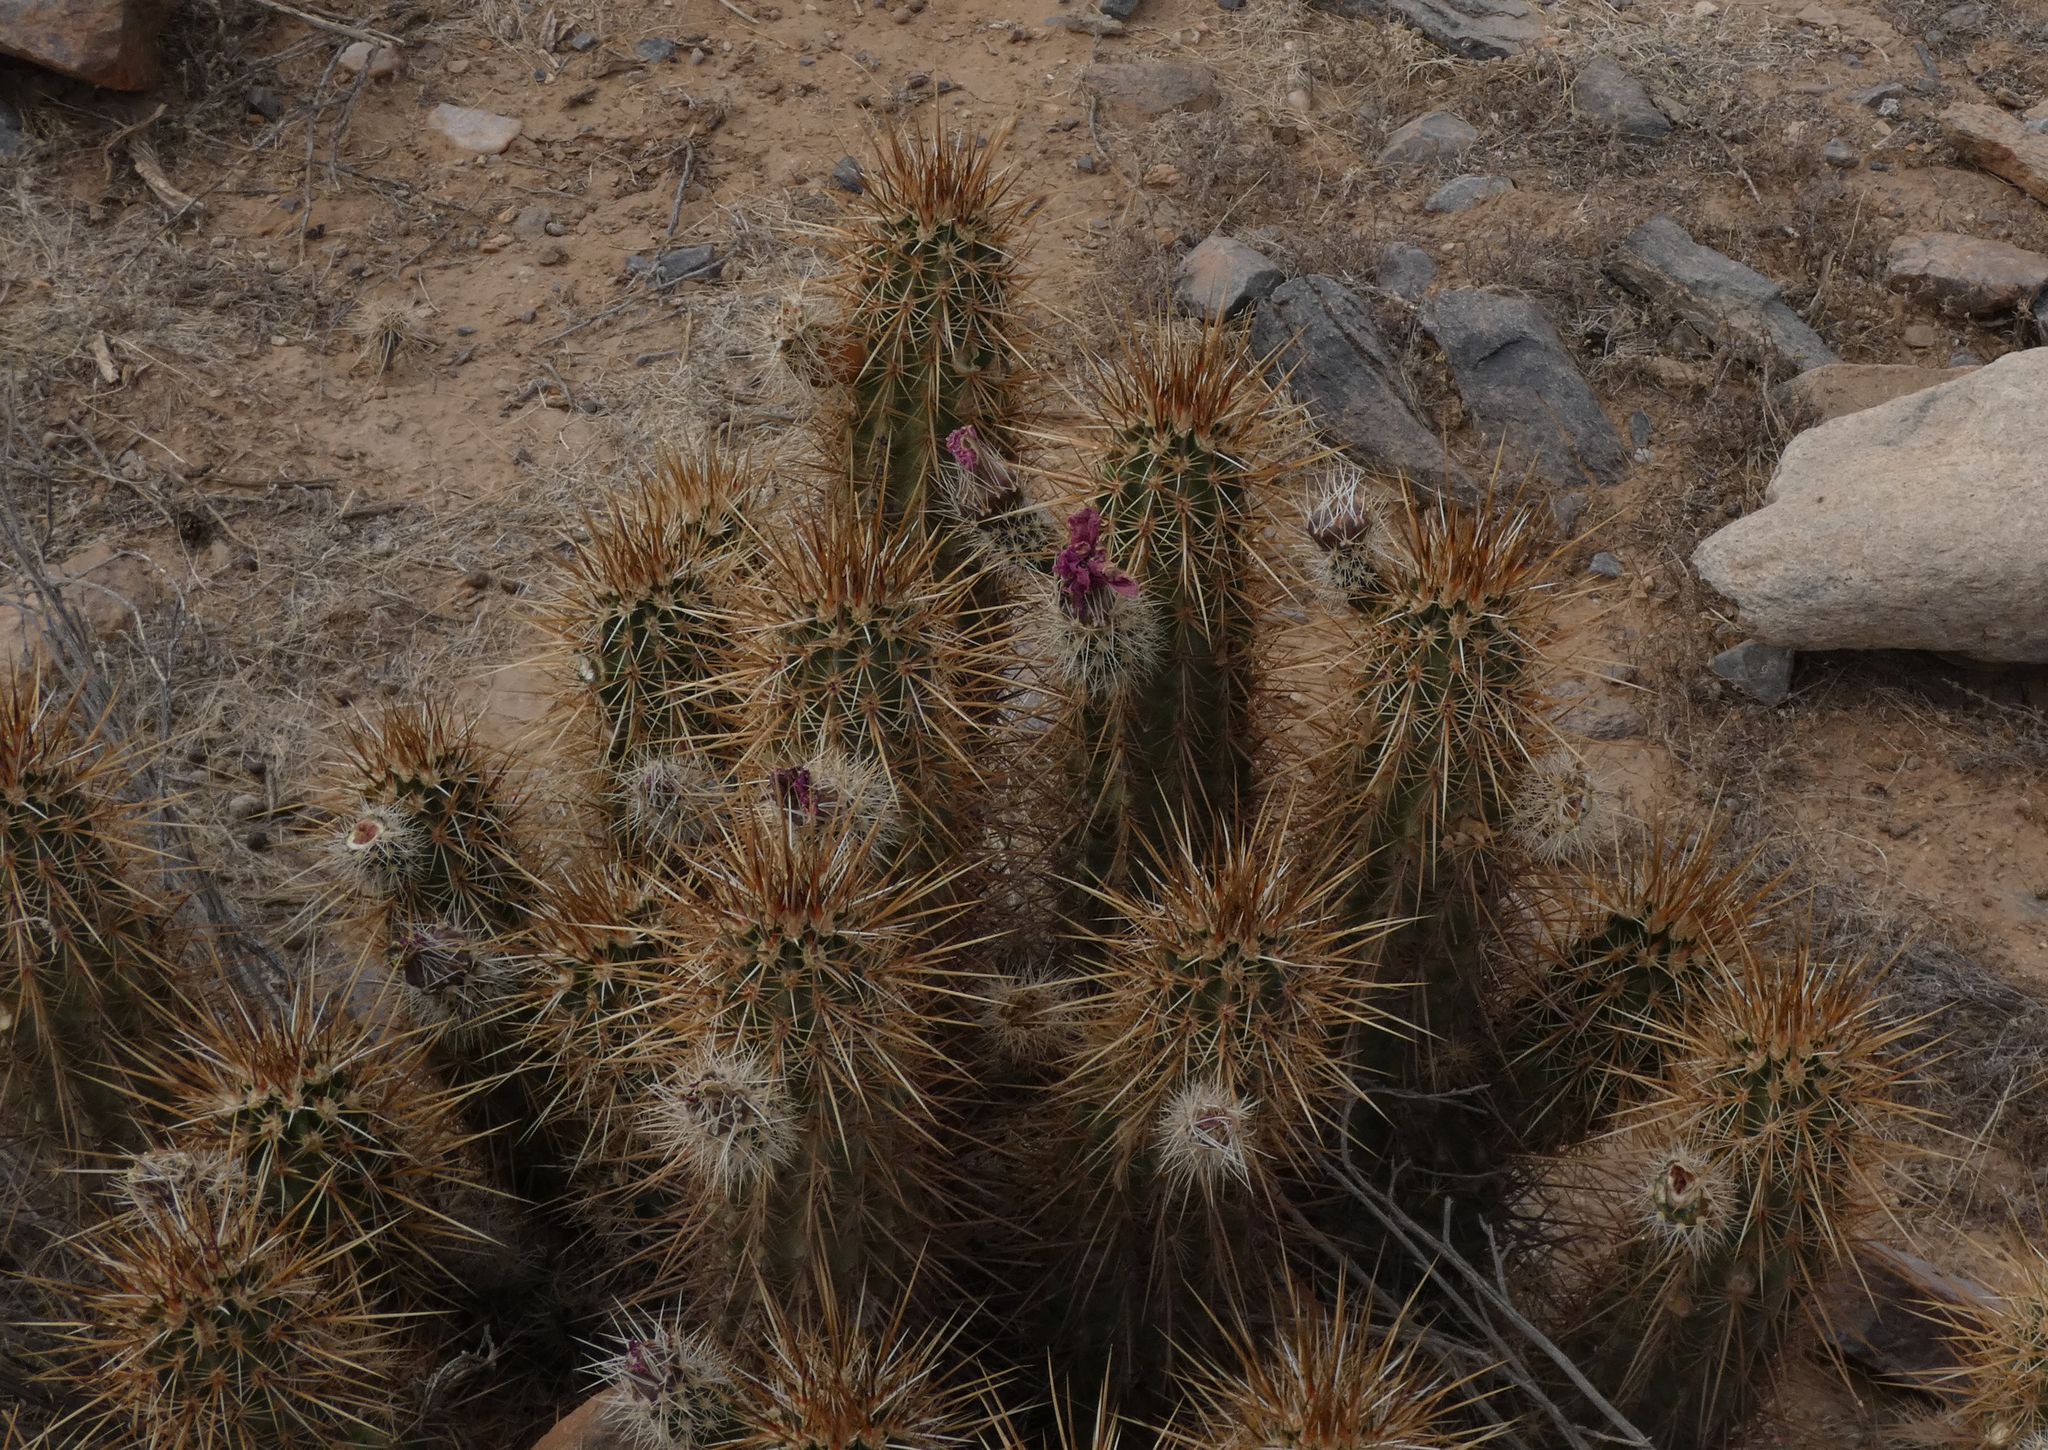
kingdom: Plantae
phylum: Tracheophyta
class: Magnoliopsida
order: Caryophyllales
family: Cactaceae
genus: Echinocereus
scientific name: Echinocereus engelmannii
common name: Engelmann's hedgehog cactus
